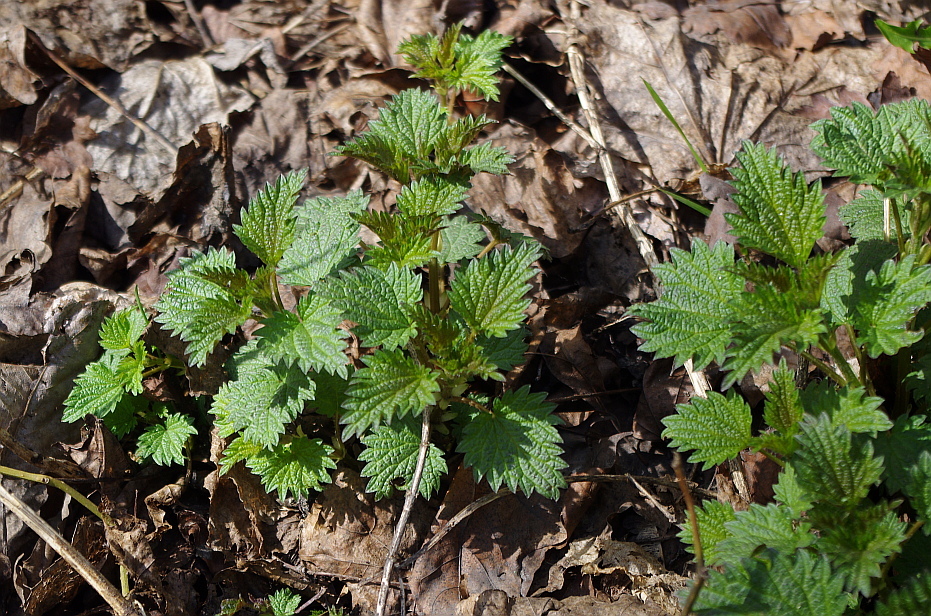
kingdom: Plantae
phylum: Tracheophyta
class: Magnoliopsida
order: Rosales
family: Urticaceae
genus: Urtica
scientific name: Urtica dioica
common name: Common nettle
